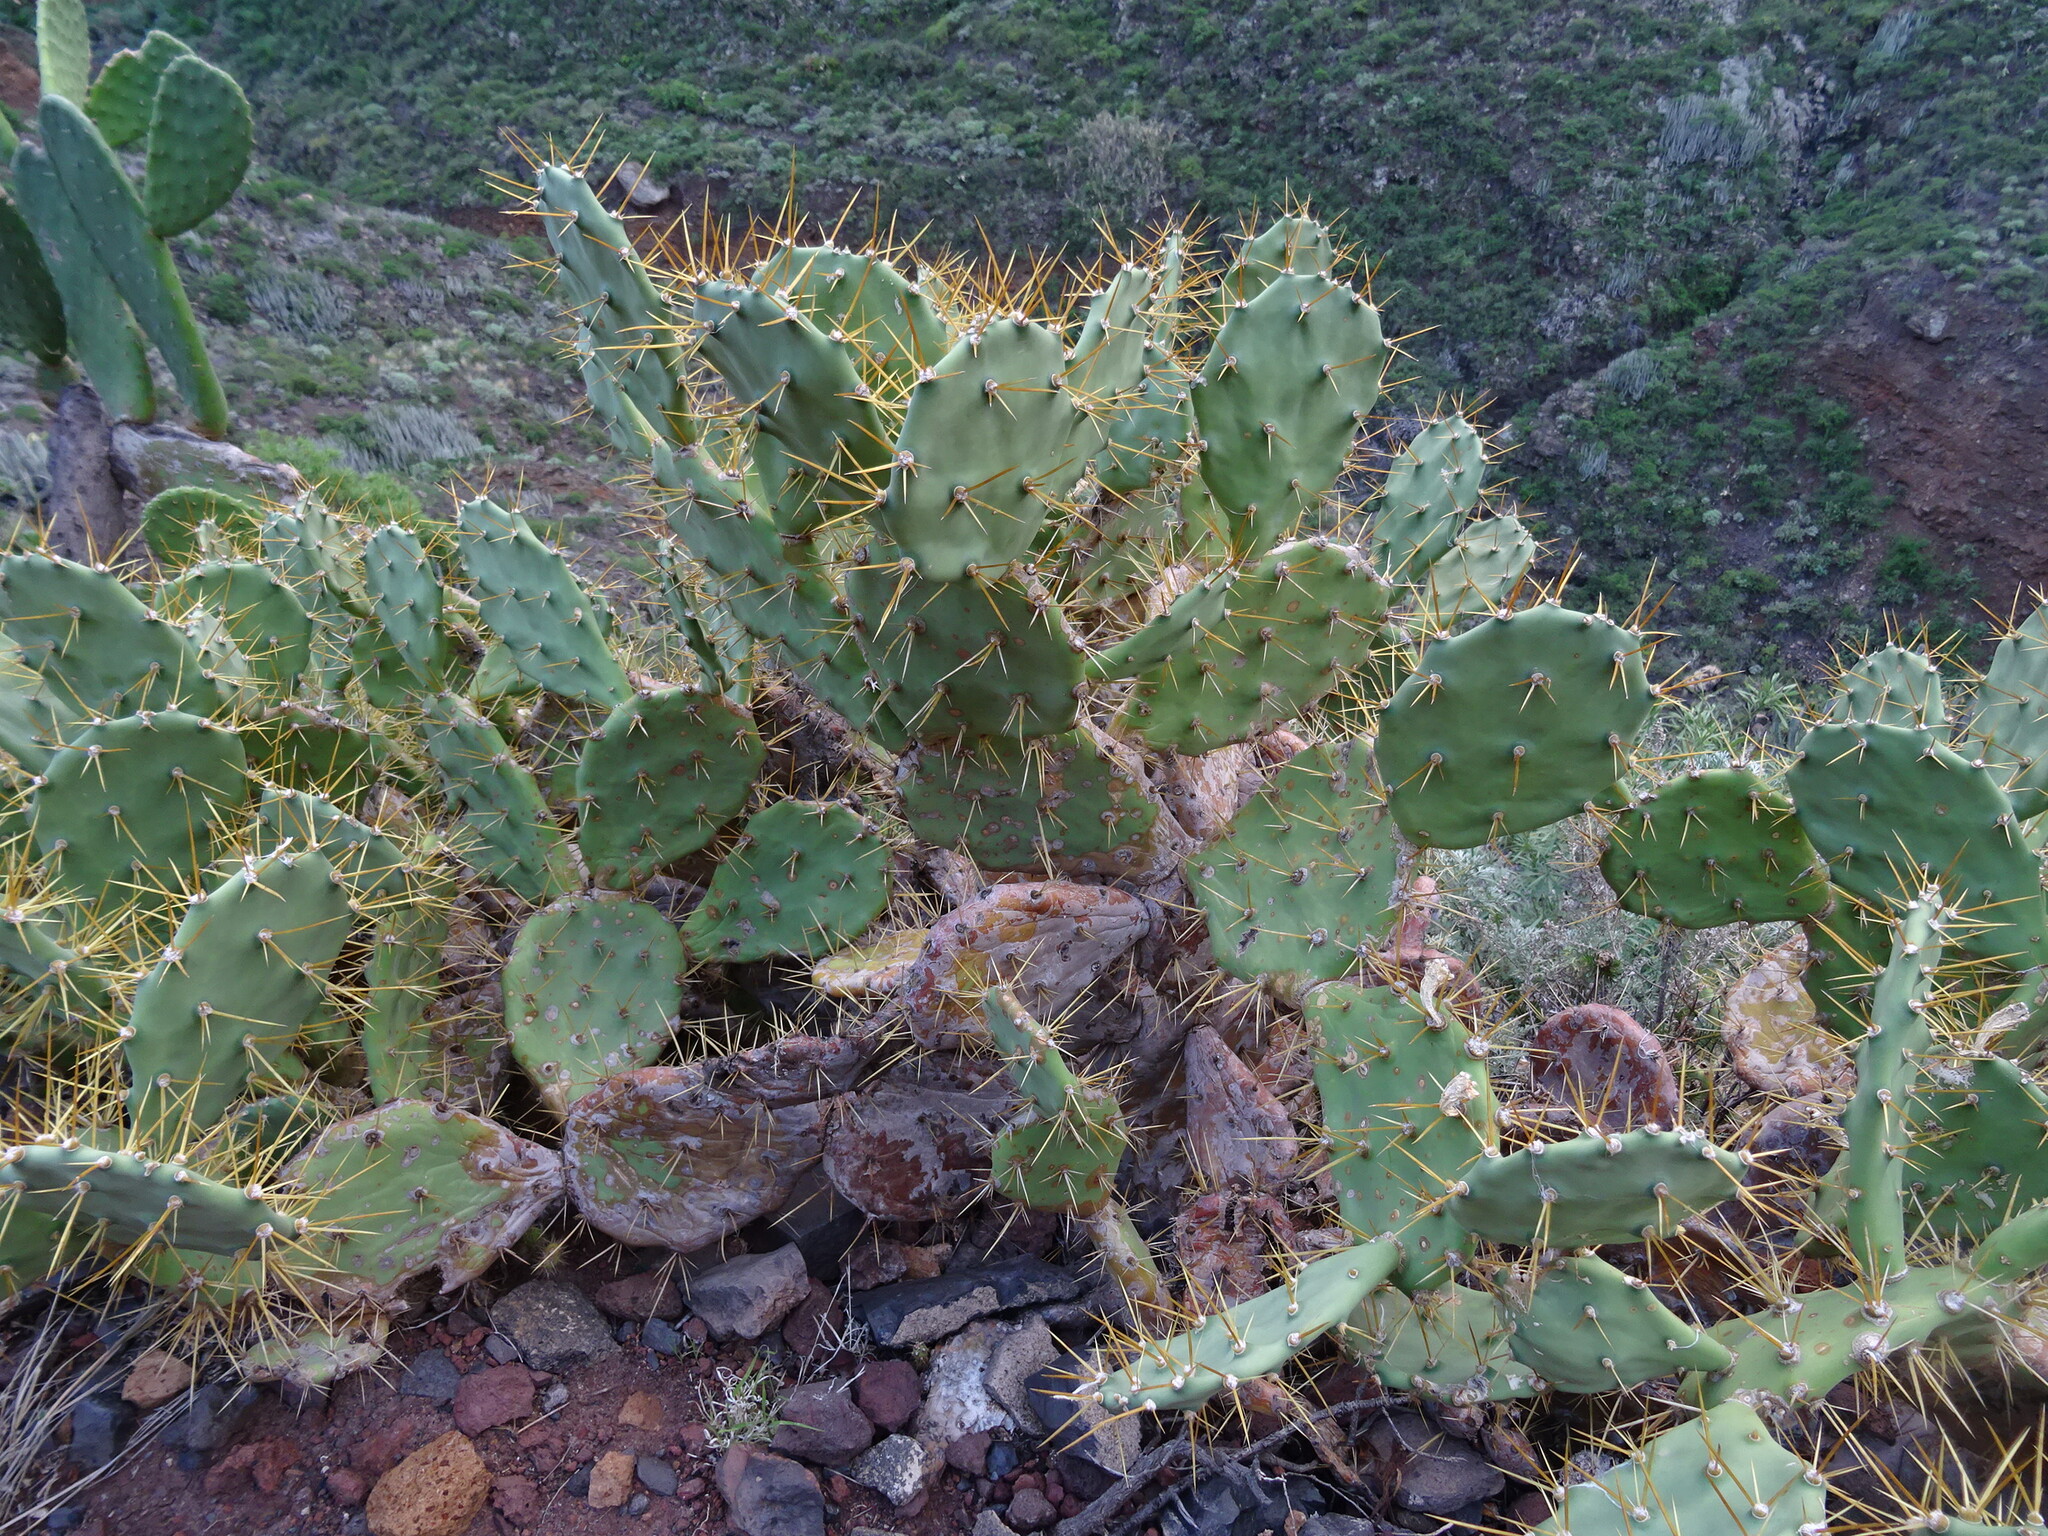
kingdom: Plantae
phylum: Tracheophyta
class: Magnoliopsida
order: Caryophyllales
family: Cactaceae
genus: Opuntia
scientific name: Opuntia stricta
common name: Erect pricklypear
